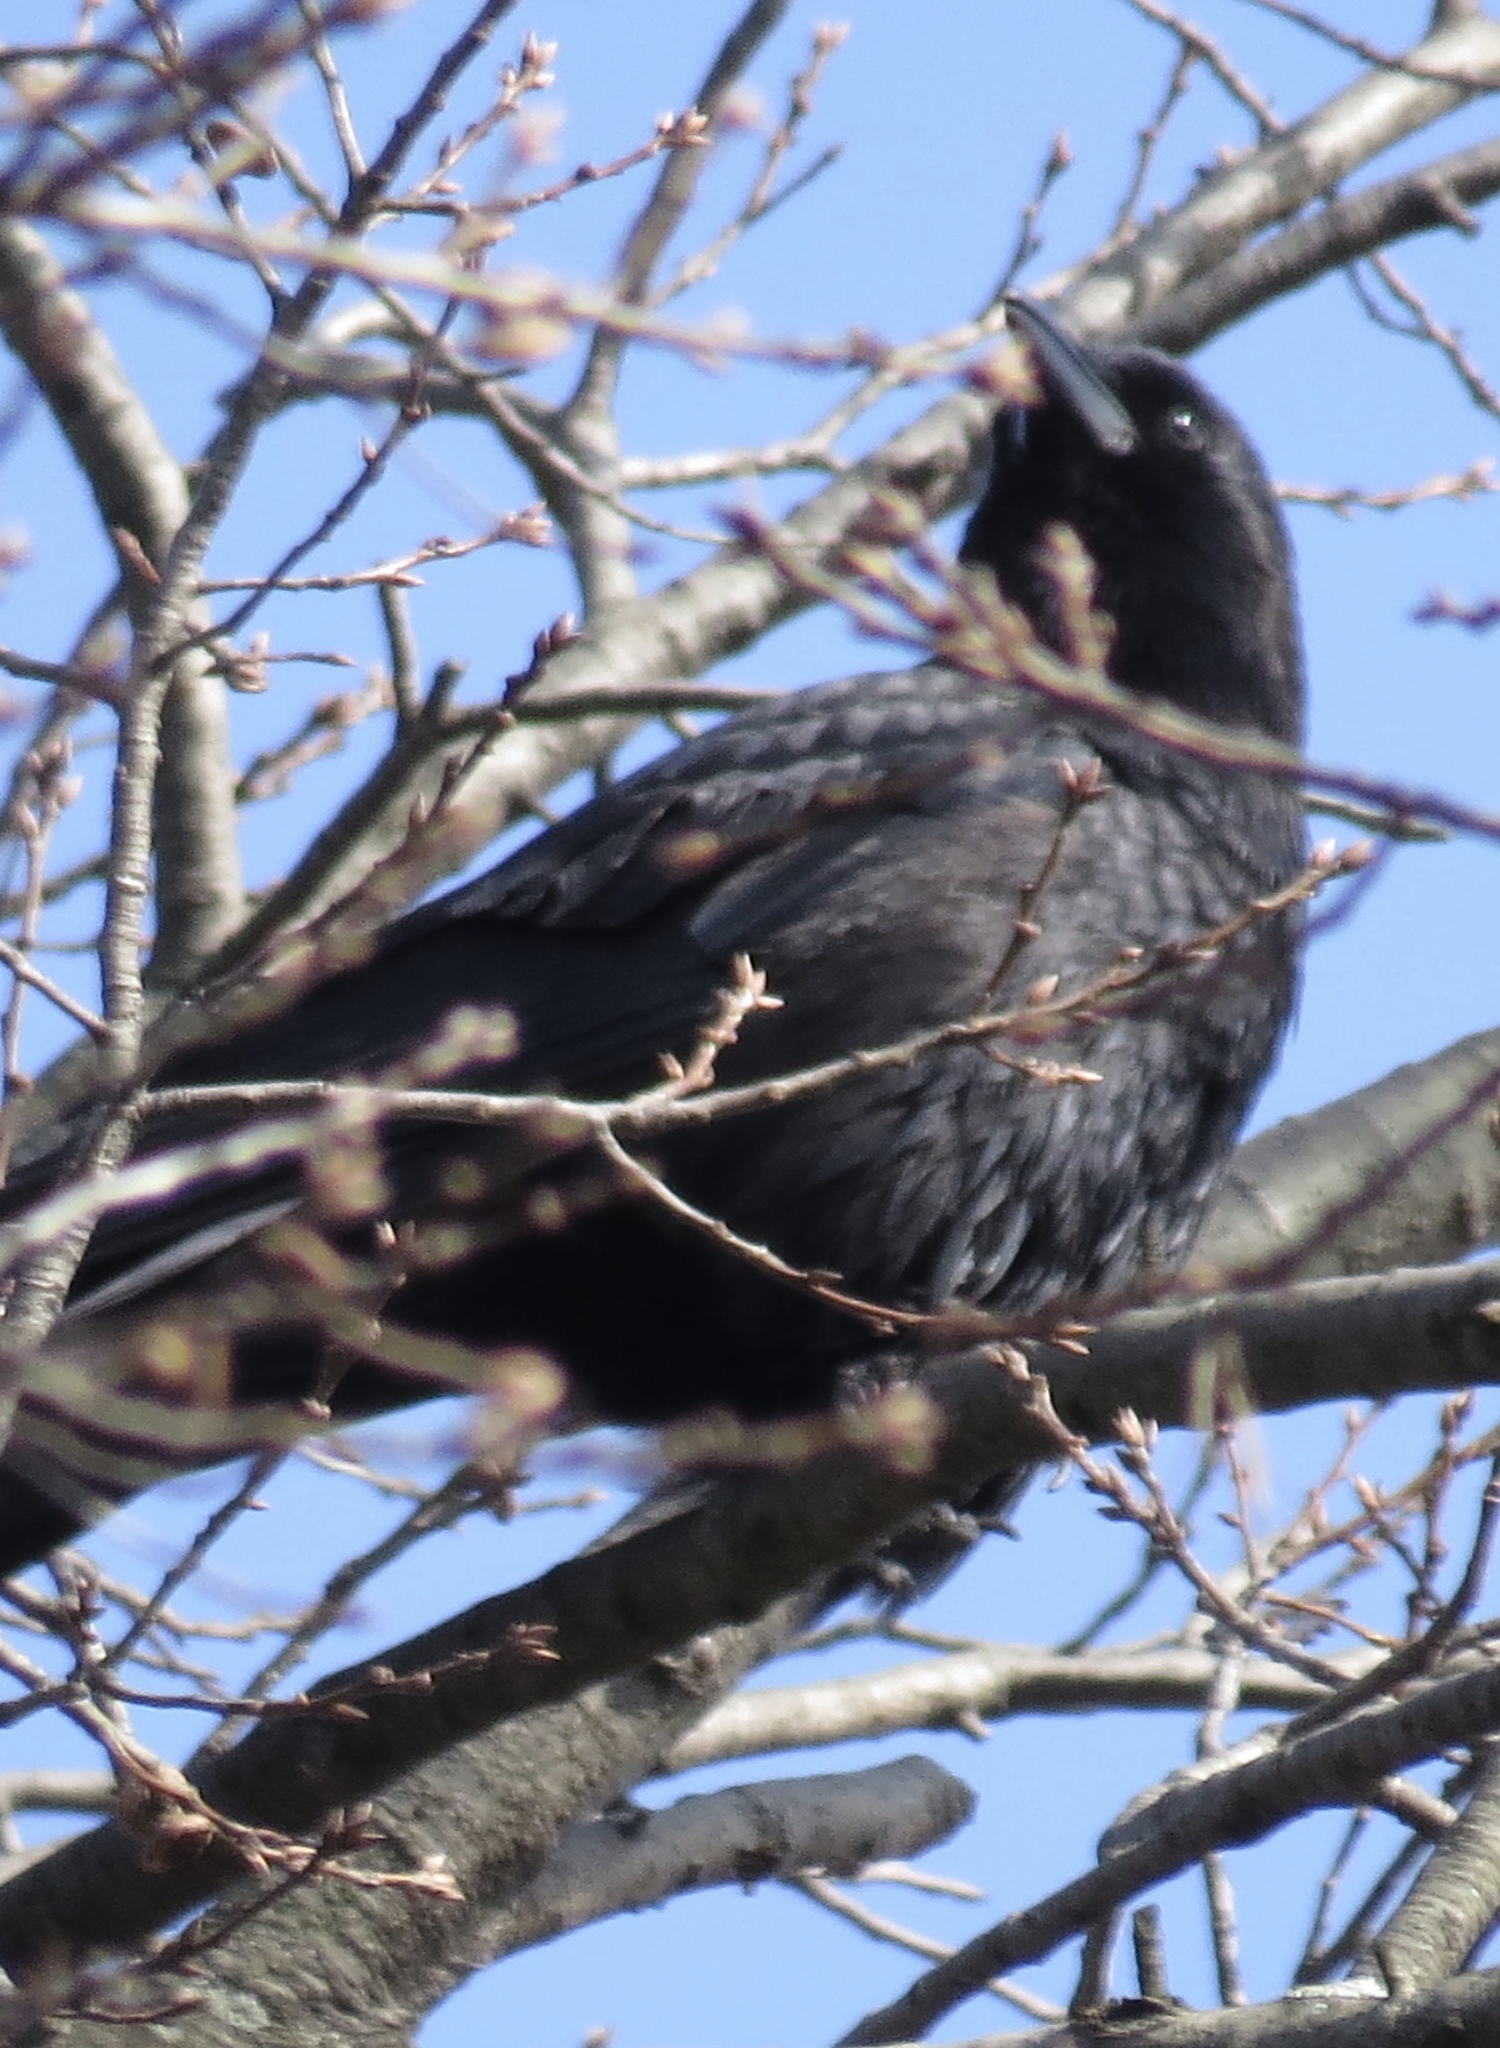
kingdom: Animalia
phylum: Chordata
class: Aves
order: Passeriformes
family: Corvidae
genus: Corvus
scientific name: Corvus brachyrhynchos
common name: American crow
